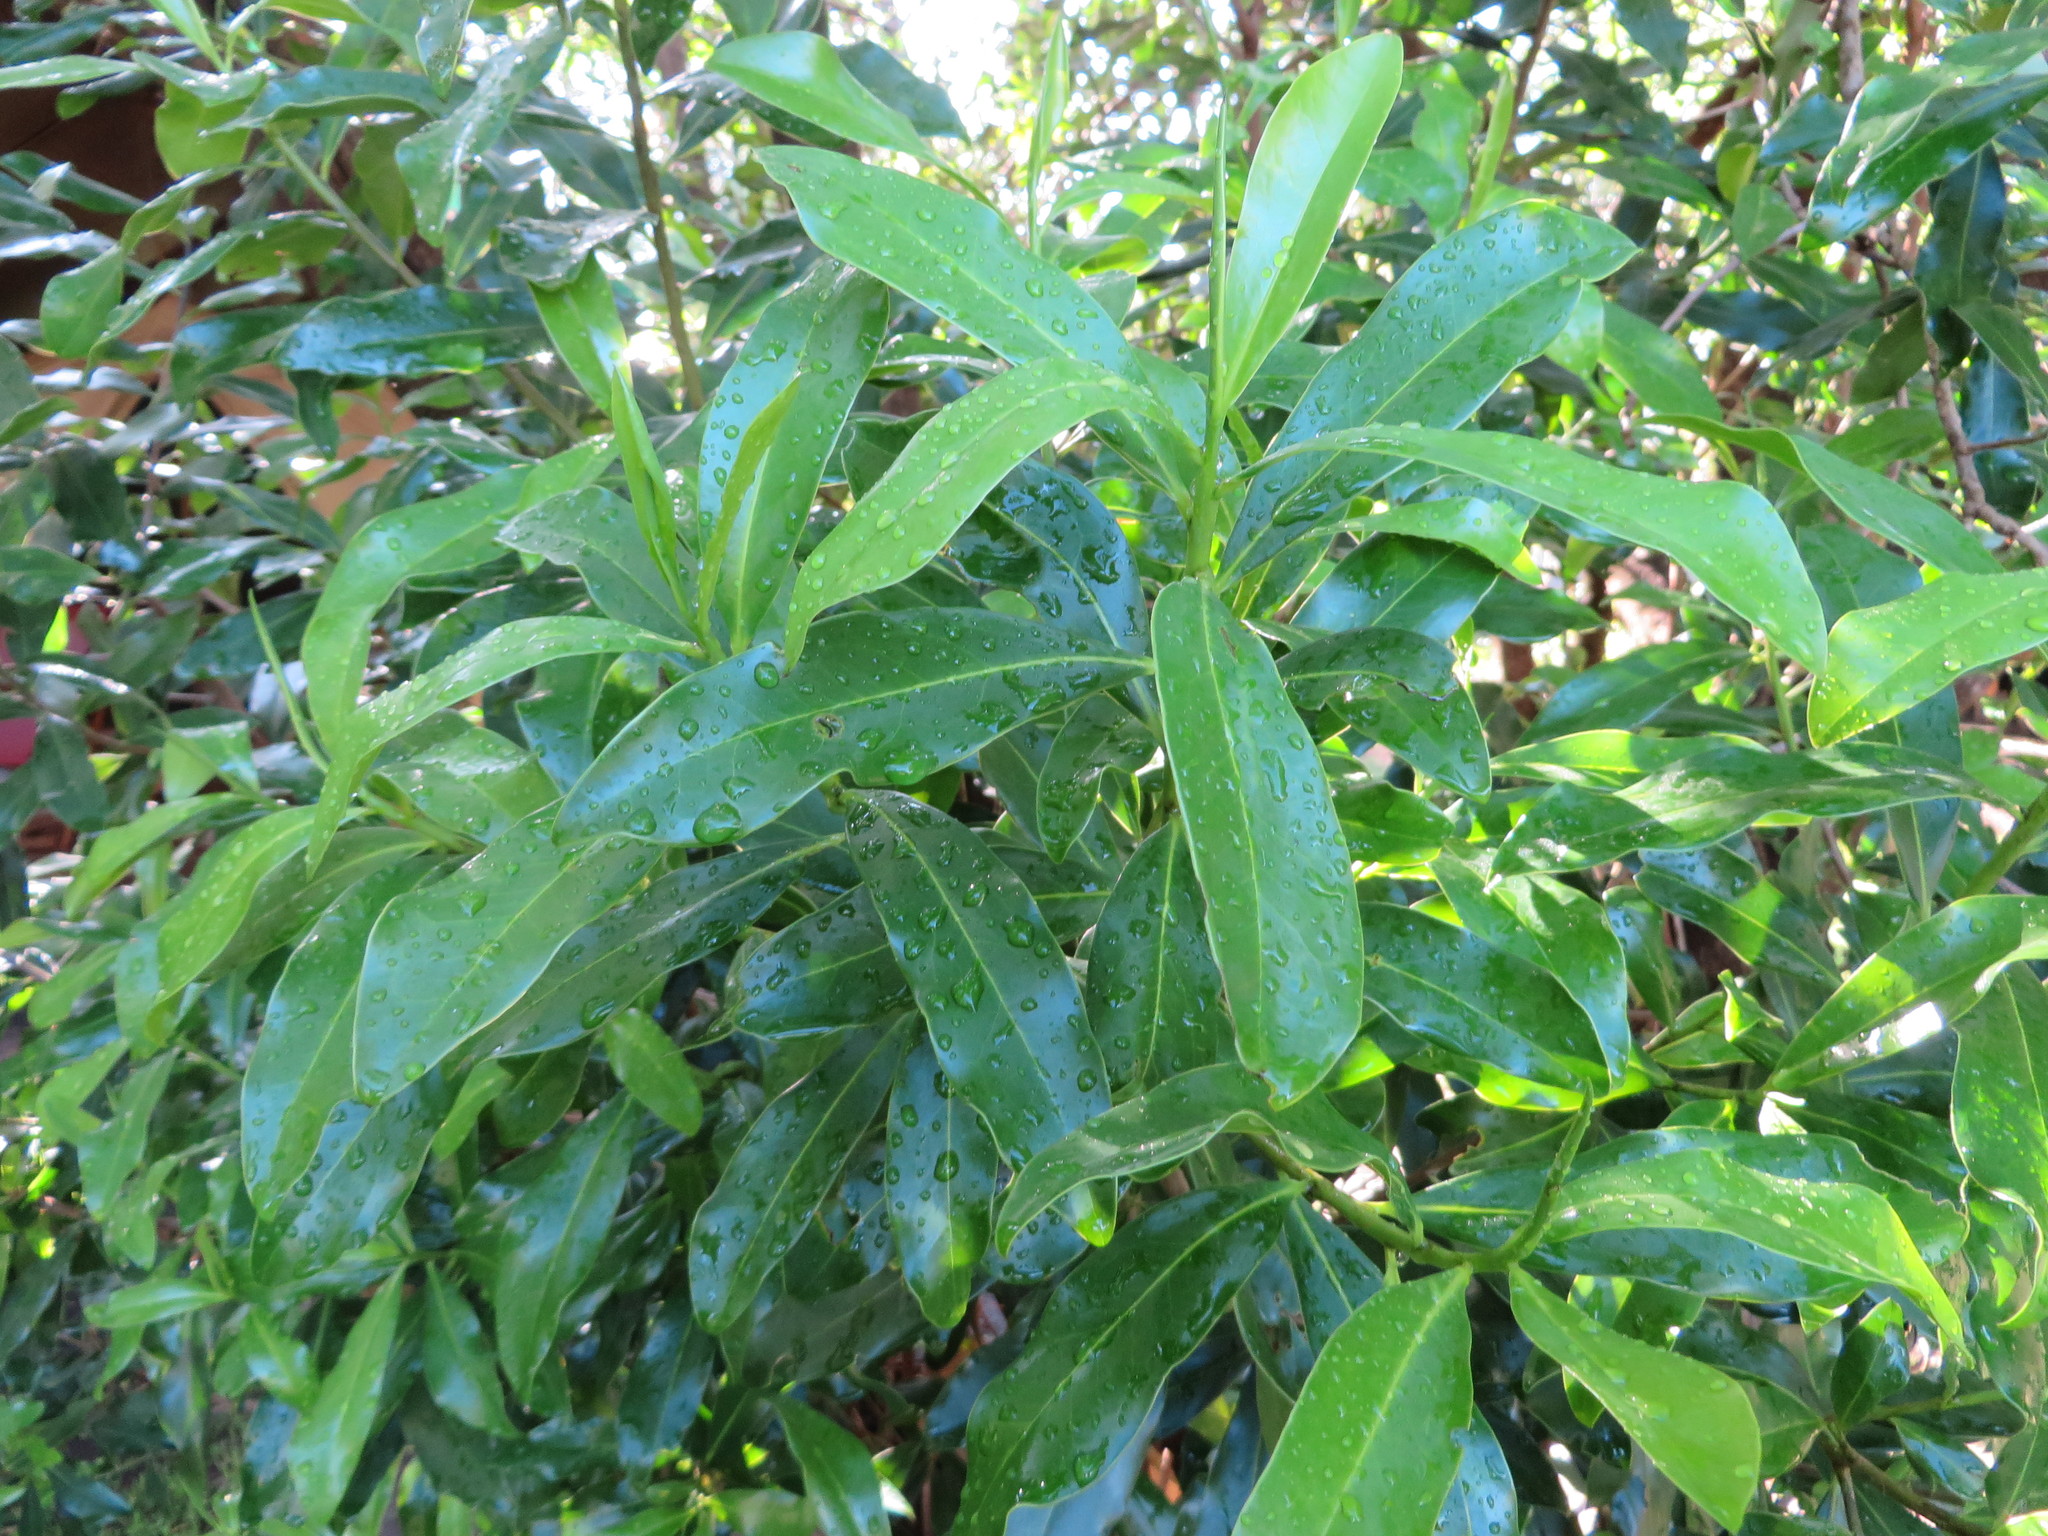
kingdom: Plantae
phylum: Tracheophyta
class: Magnoliopsida
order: Canellales
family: Canellaceae
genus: Warburgia
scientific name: Warburgia ugandensis
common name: East african greenbark
